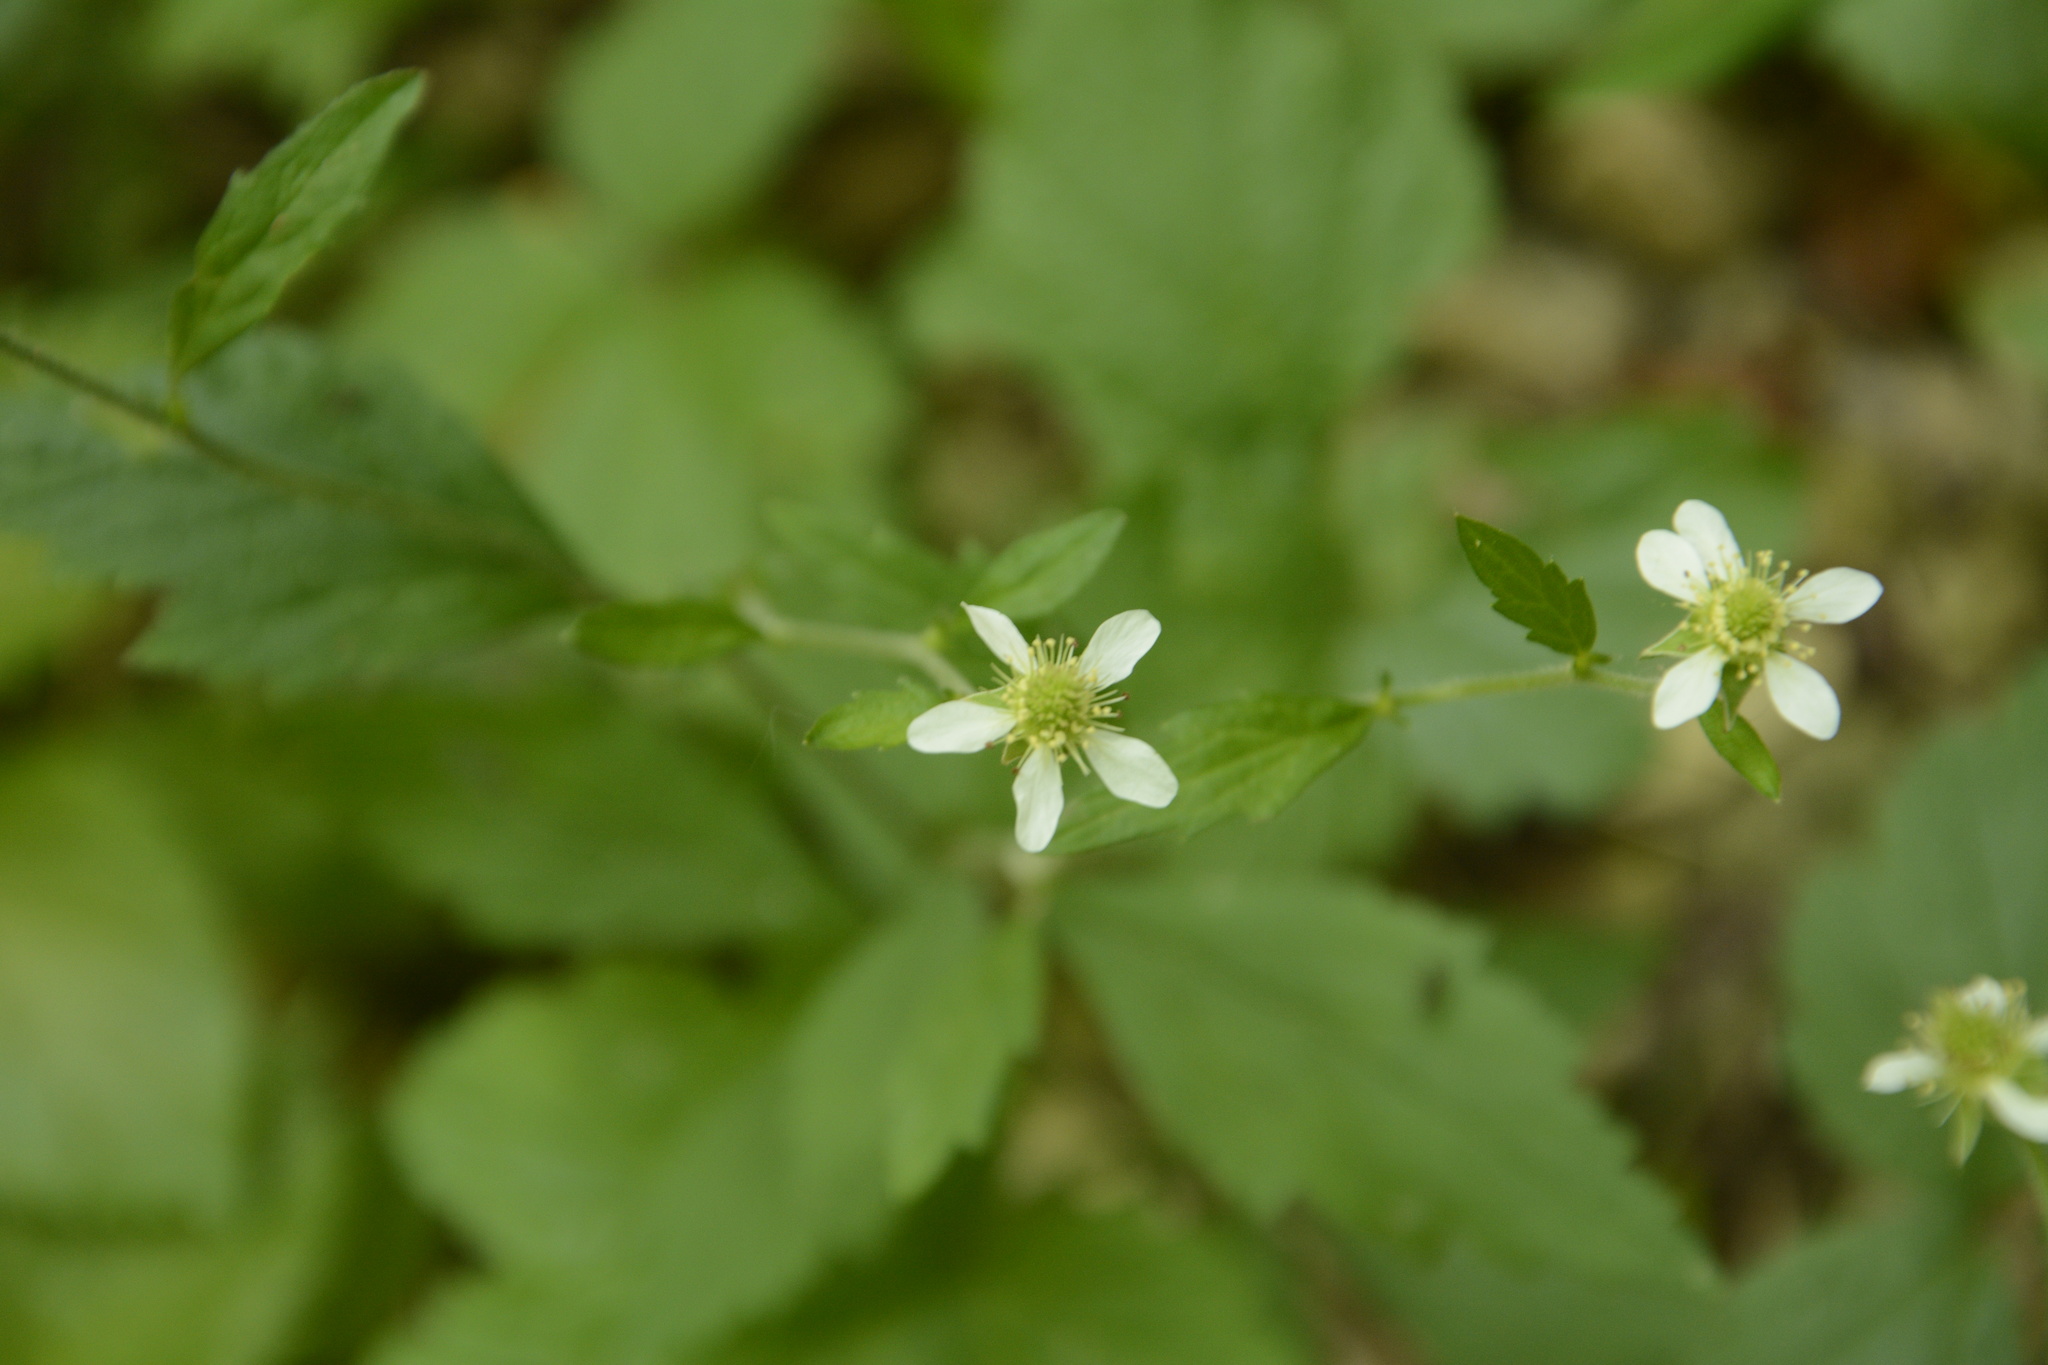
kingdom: Plantae
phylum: Tracheophyta
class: Magnoliopsida
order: Rosales
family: Rosaceae
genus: Geum
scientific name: Geum canadense
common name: White avens
